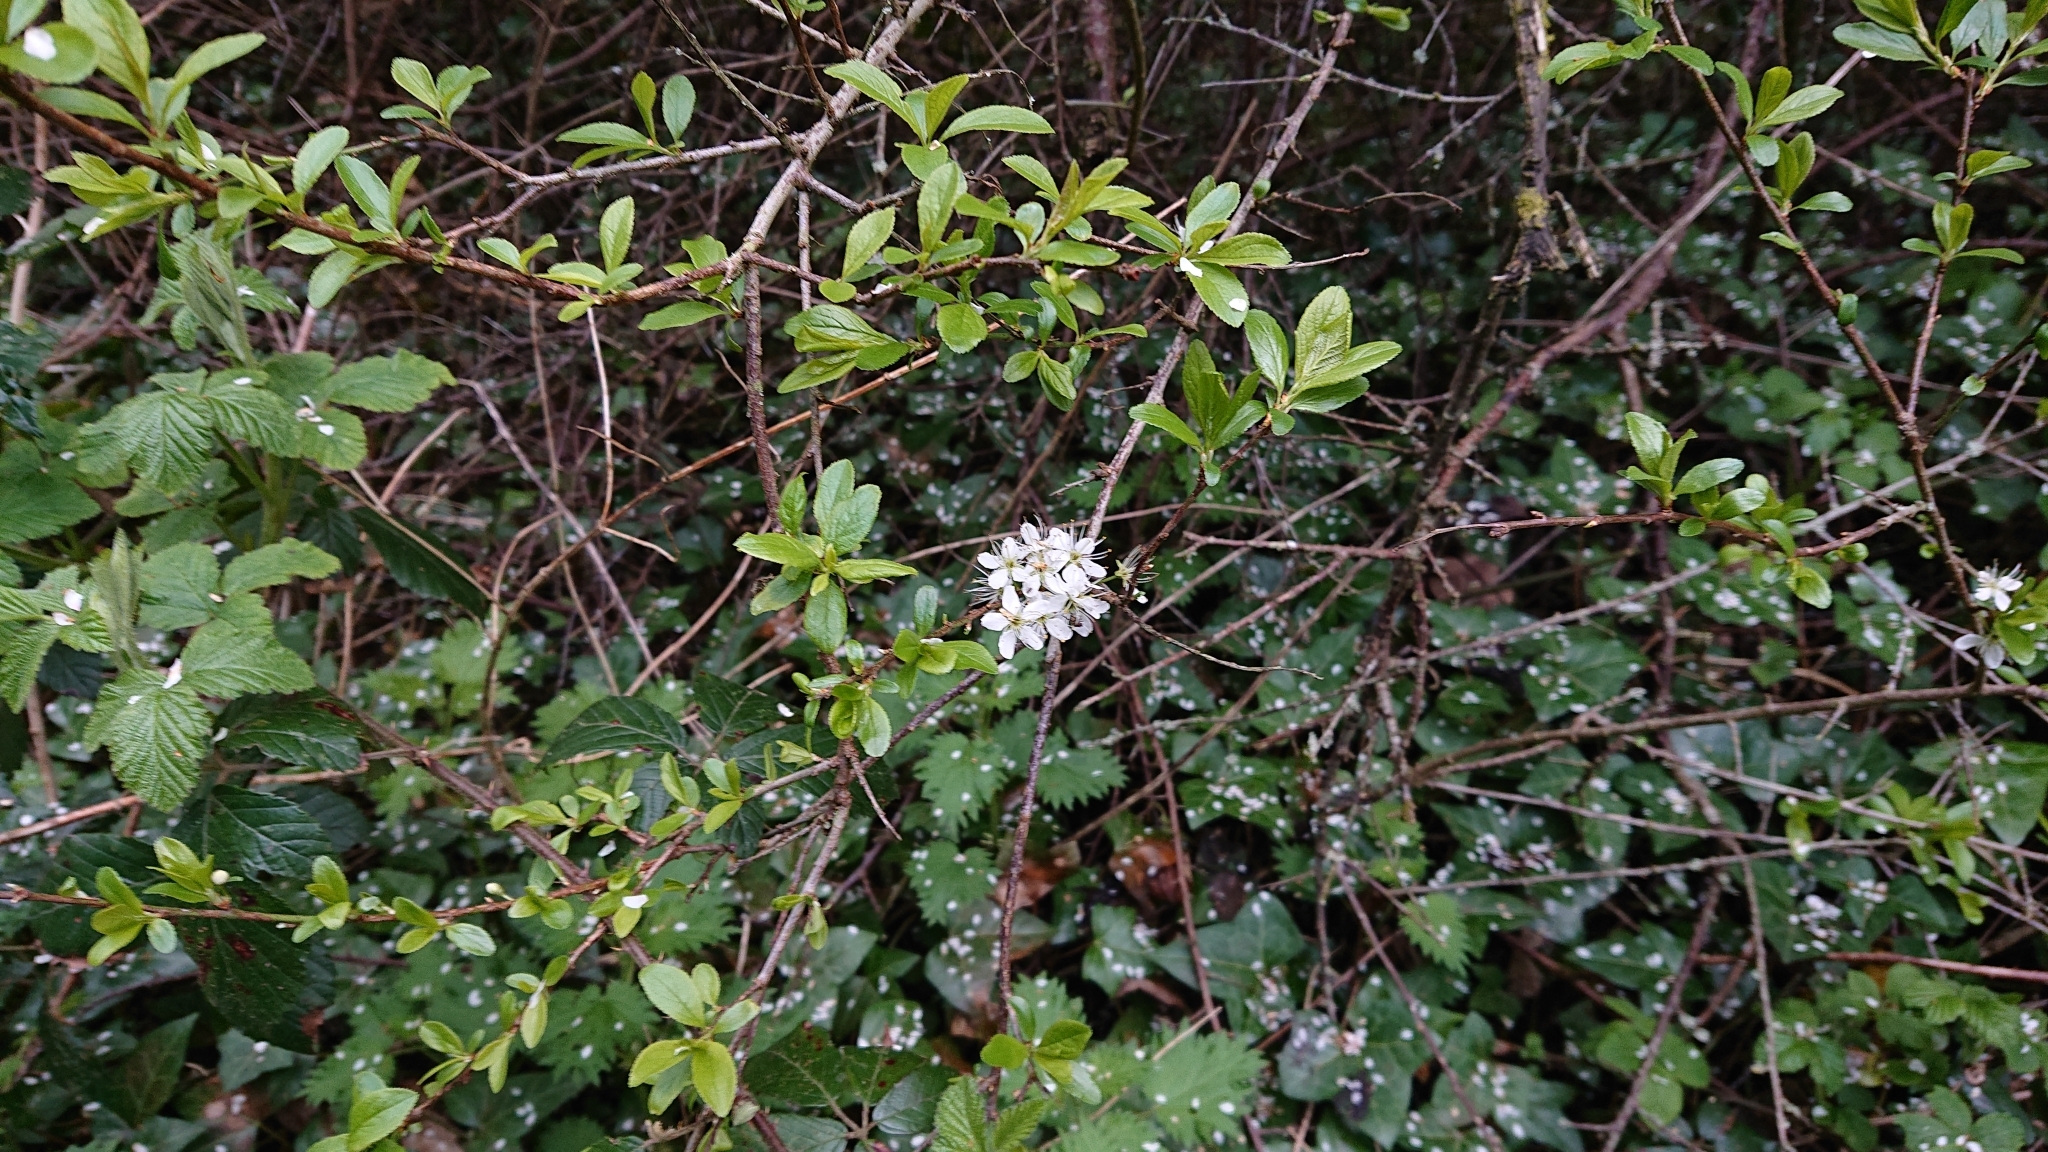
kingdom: Plantae
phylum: Tracheophyta
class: Magnoliopsida
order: Rosales
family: Rosaceae
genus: Prunus
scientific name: Prunus spinosa
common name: Blackthorn
